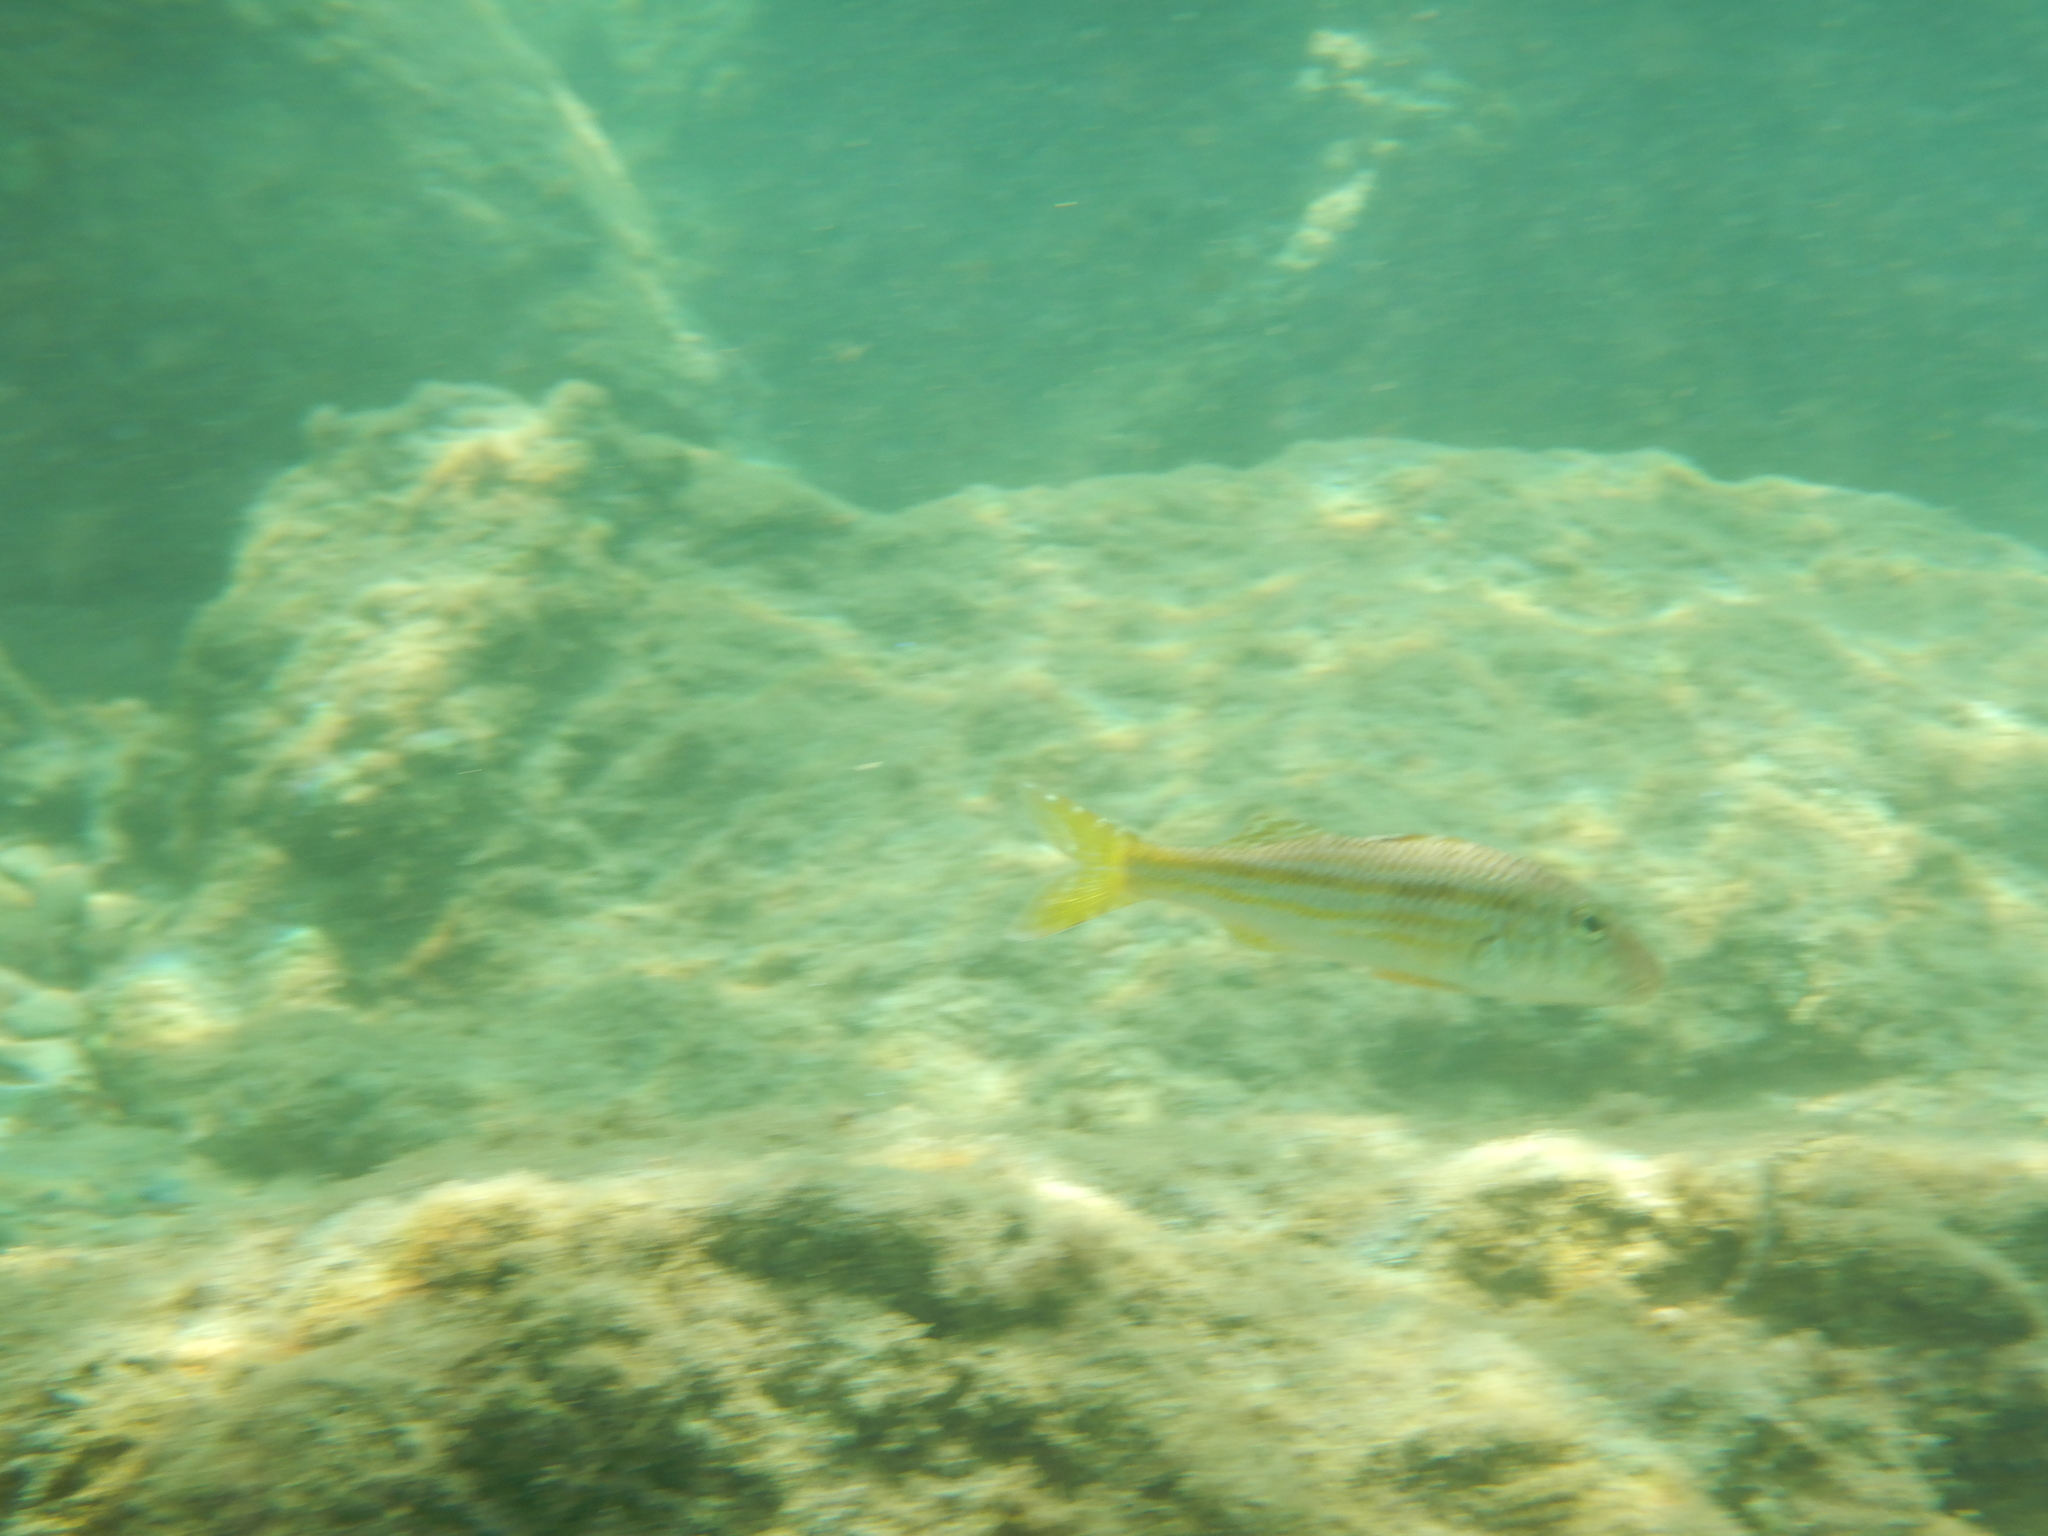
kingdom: Animalia
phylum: Chordata
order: Perciformes
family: Mullidae
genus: Mullus
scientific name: Mullus surmuletus
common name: Red mullet
